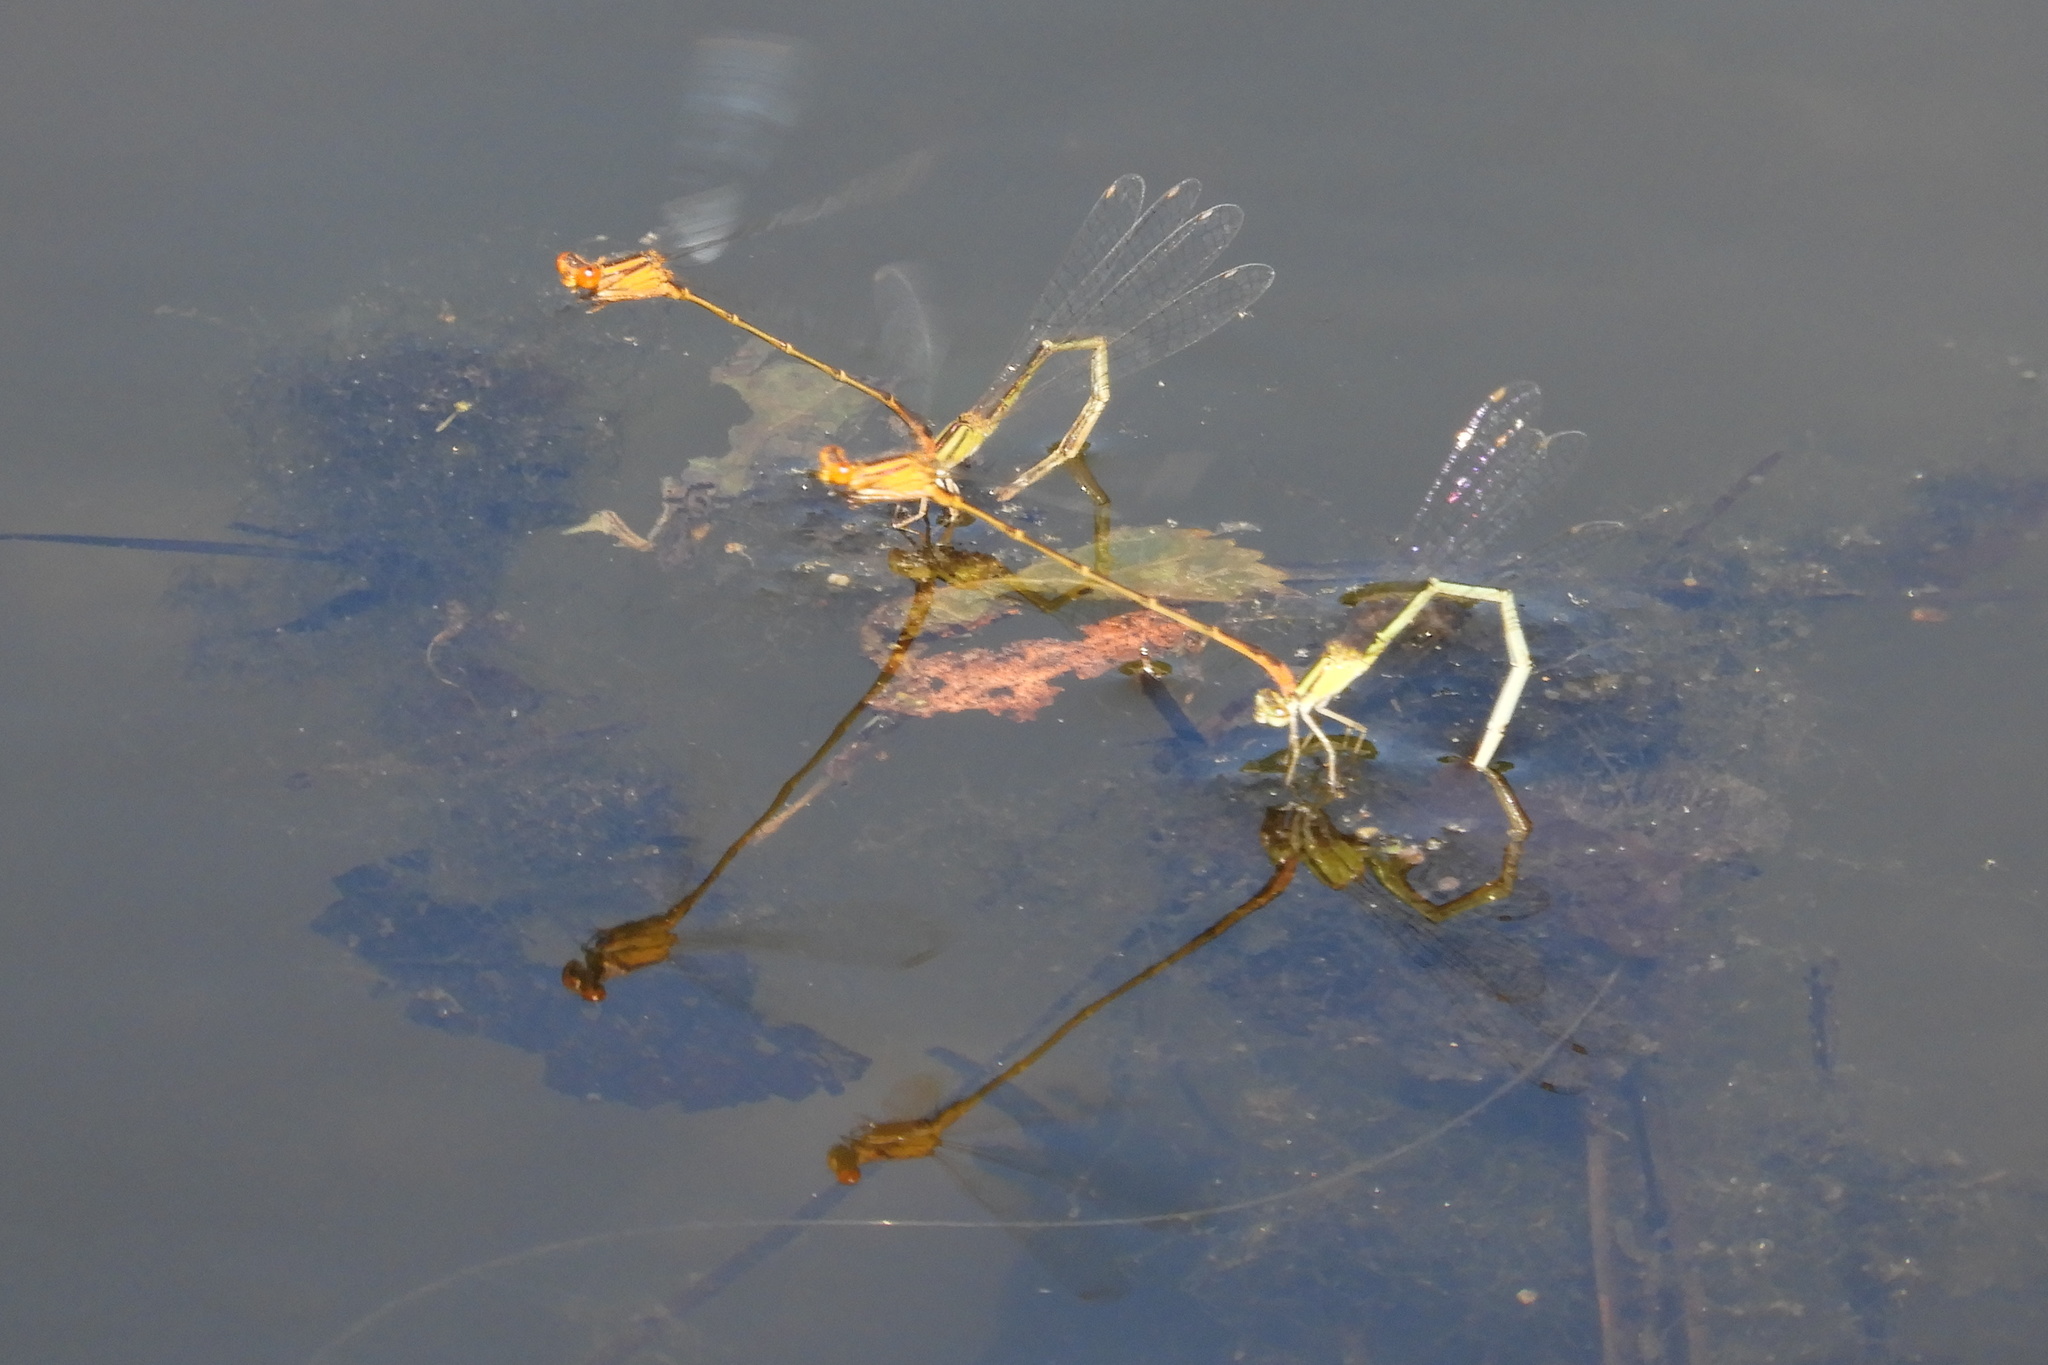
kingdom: Animalia
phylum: Arthropoda
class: Insecta
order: Odonata
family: Coenagrionidae
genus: Enallagma
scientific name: Enallagma signatum
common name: Orange bluet
